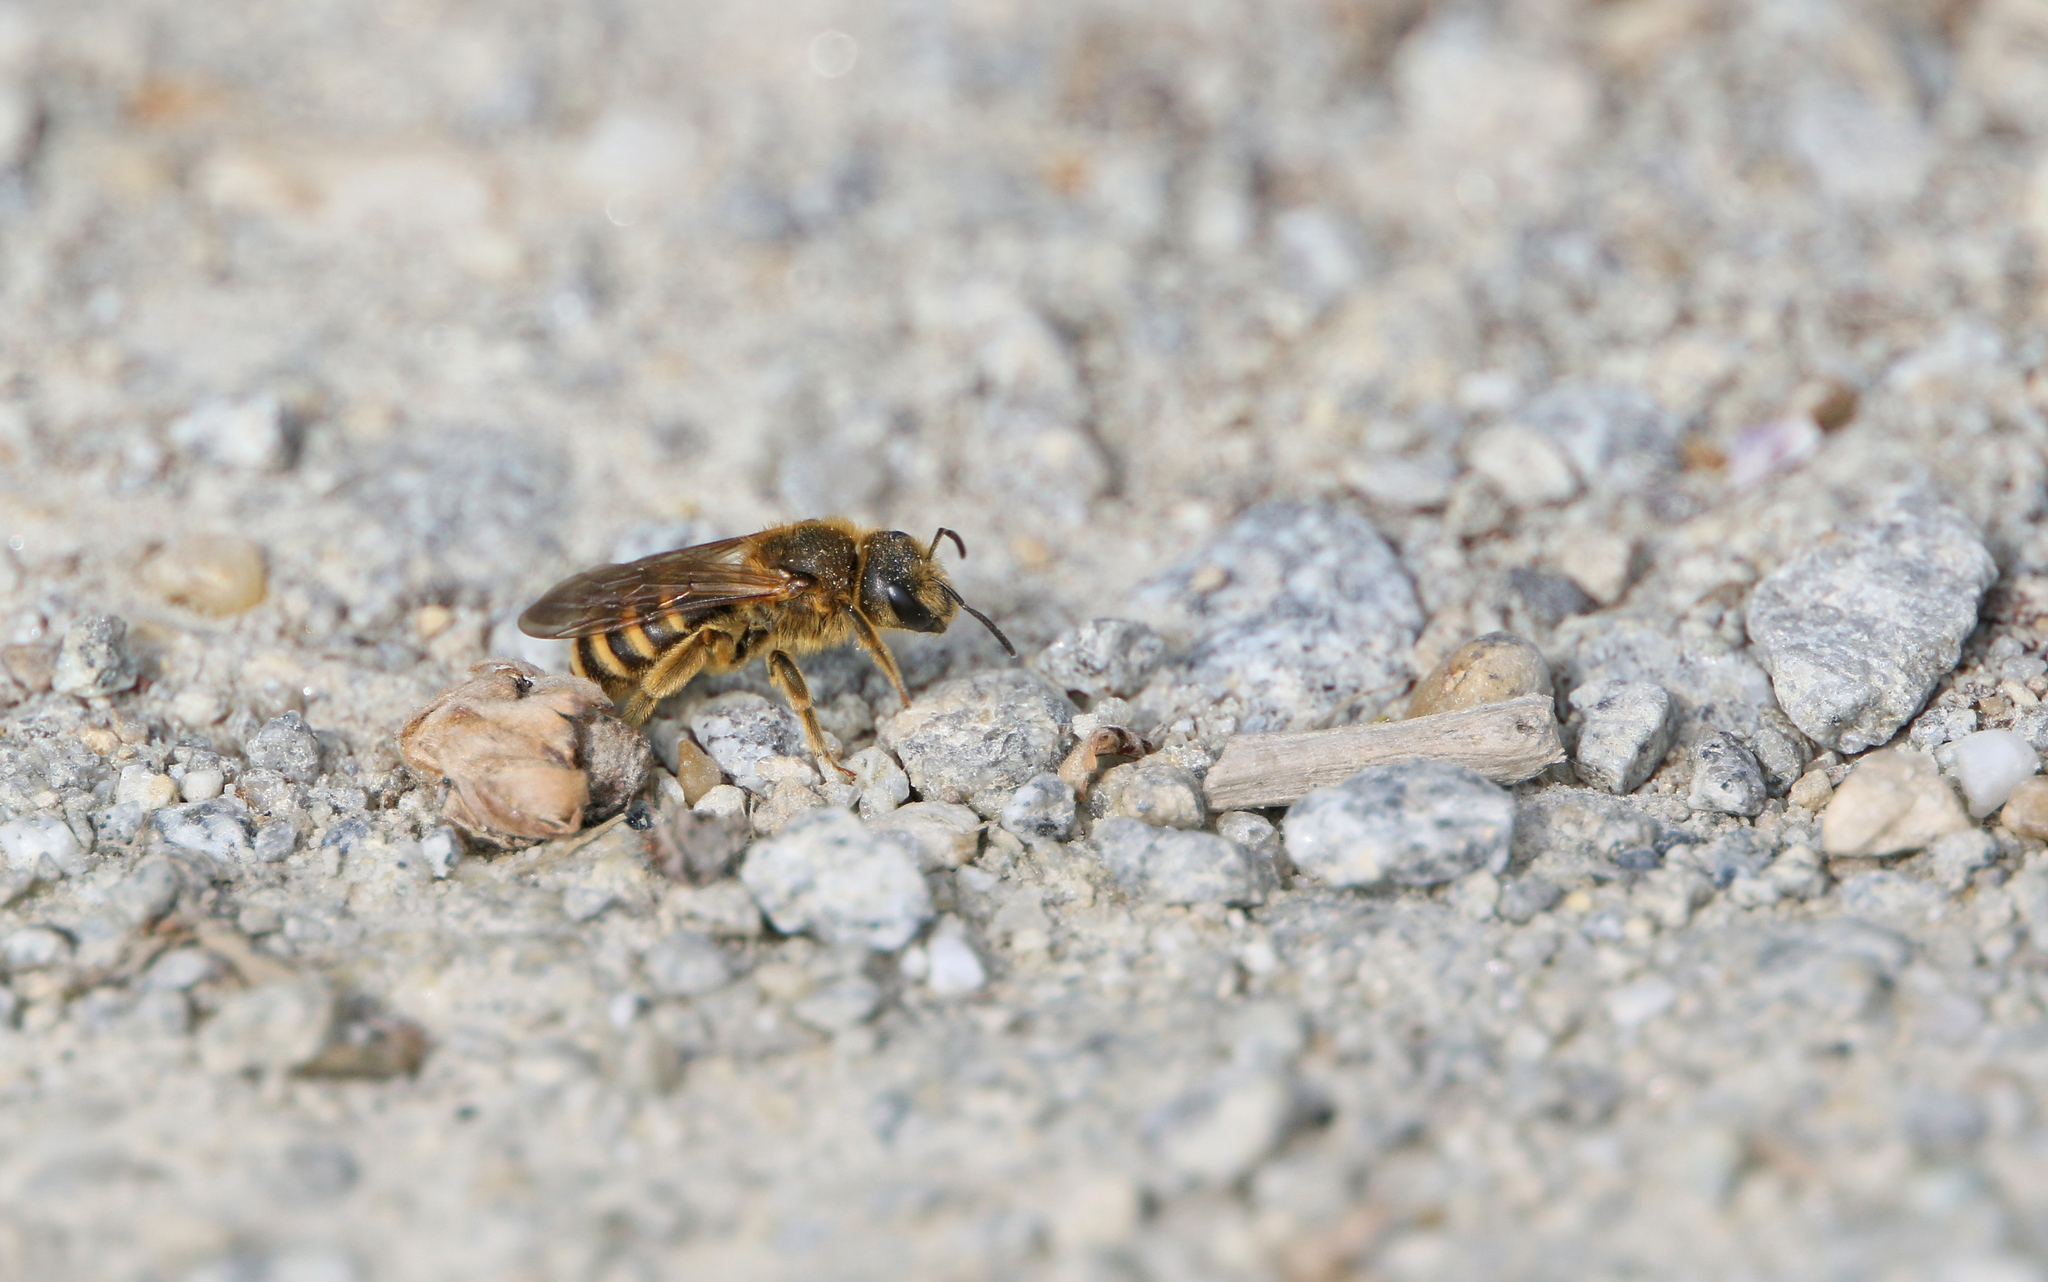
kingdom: Animalia
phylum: Arthropoda
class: Insecta
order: Hymenoptera
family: Halictidae
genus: Halictus
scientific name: Halictus scabiosae
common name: Great banded furrow bee
